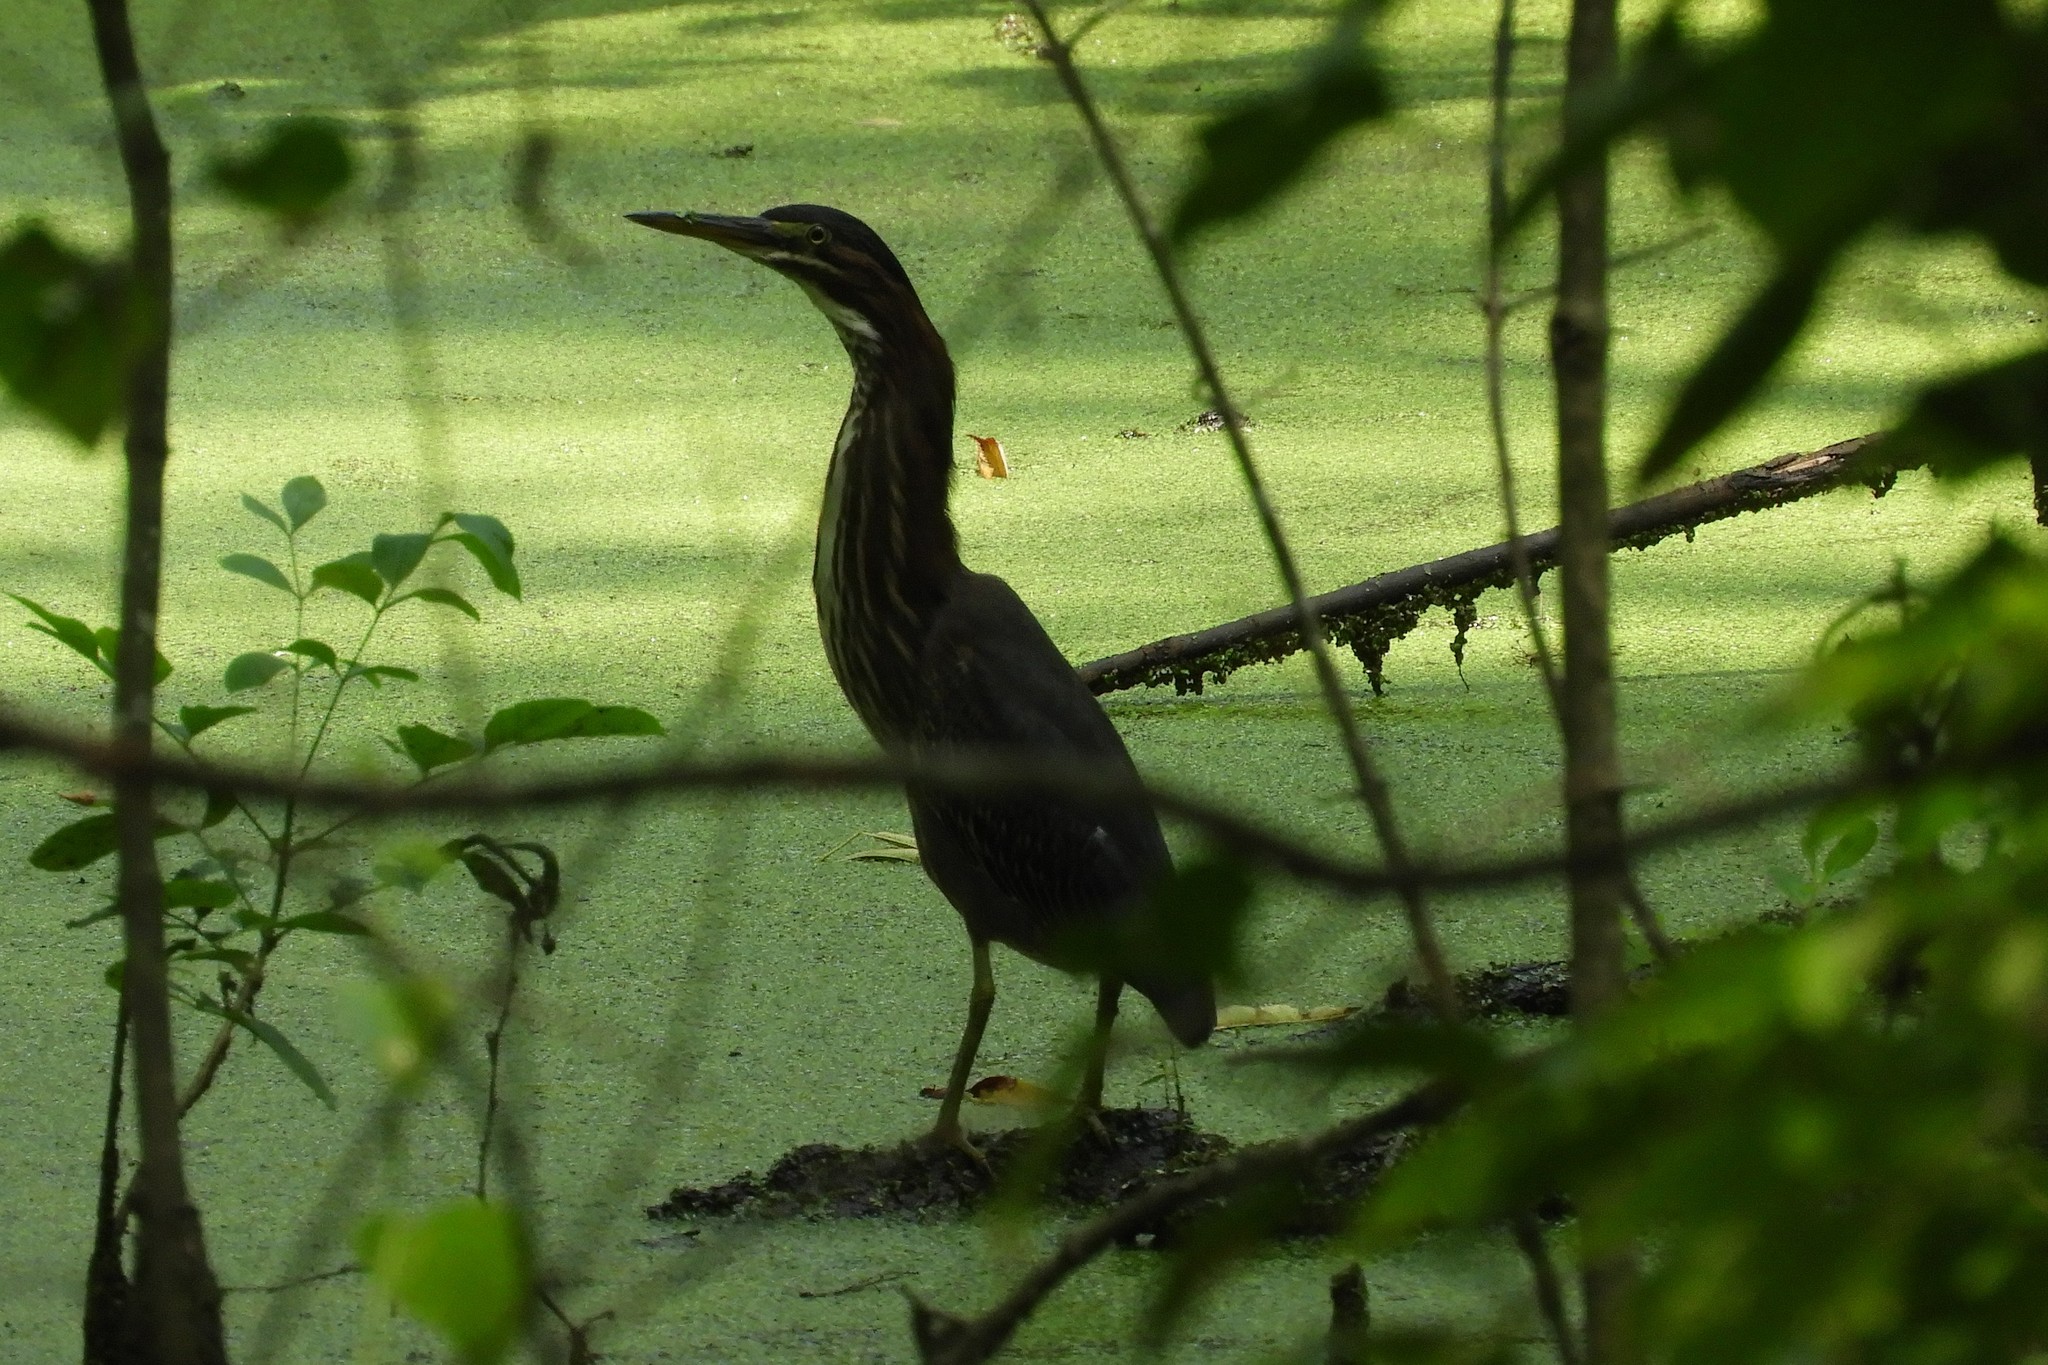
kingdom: Animalia
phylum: Chordata
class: Aves
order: Pelecaniformes
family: Ardeidae
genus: Butorides
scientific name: Butorides virescens
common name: Green heron
